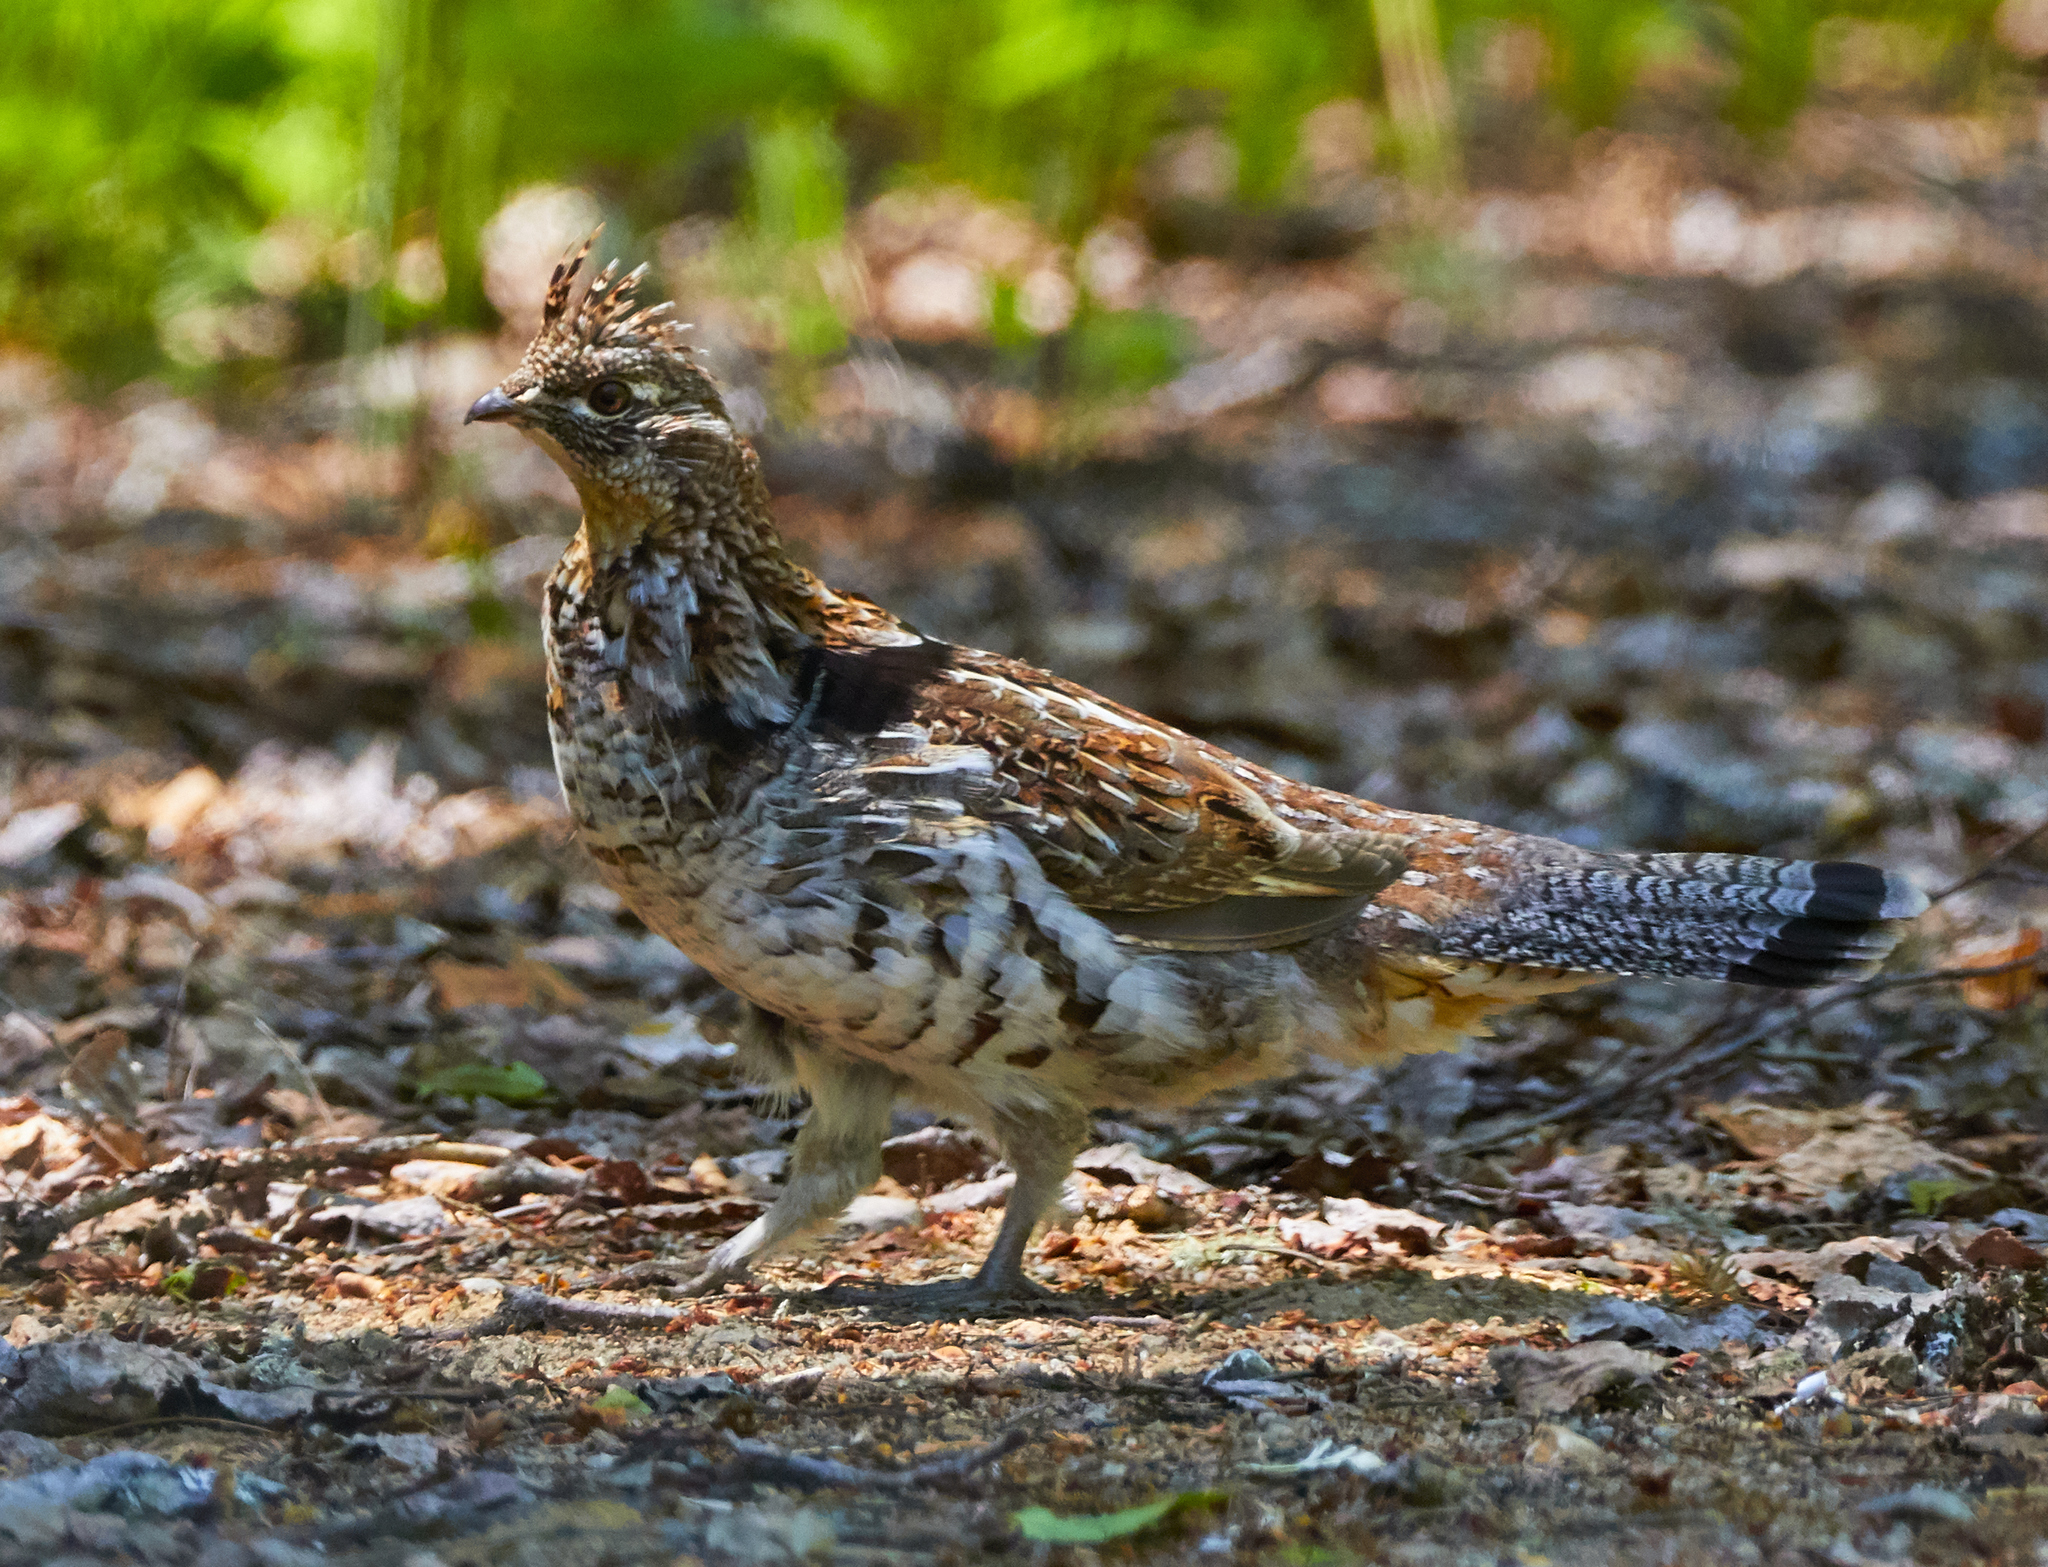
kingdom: Animalia
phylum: Chordata
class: Aves
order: Galliformes
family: Phasianidae
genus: Bonasa
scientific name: Bonasa umbellus
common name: Ruffed grouse
